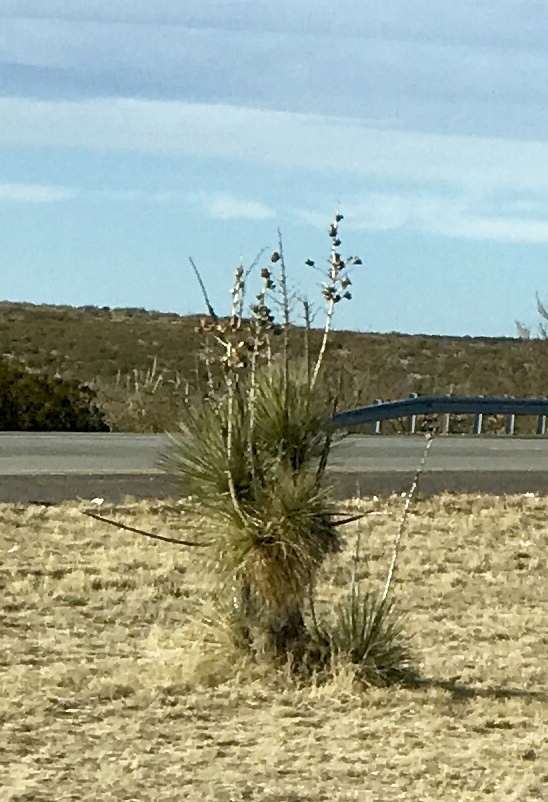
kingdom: Plantae
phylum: Tracheophyta
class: Liliopsida
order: Asparagales
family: Asparagaceae
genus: Yucca
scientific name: Yucca elata
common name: Palmella
